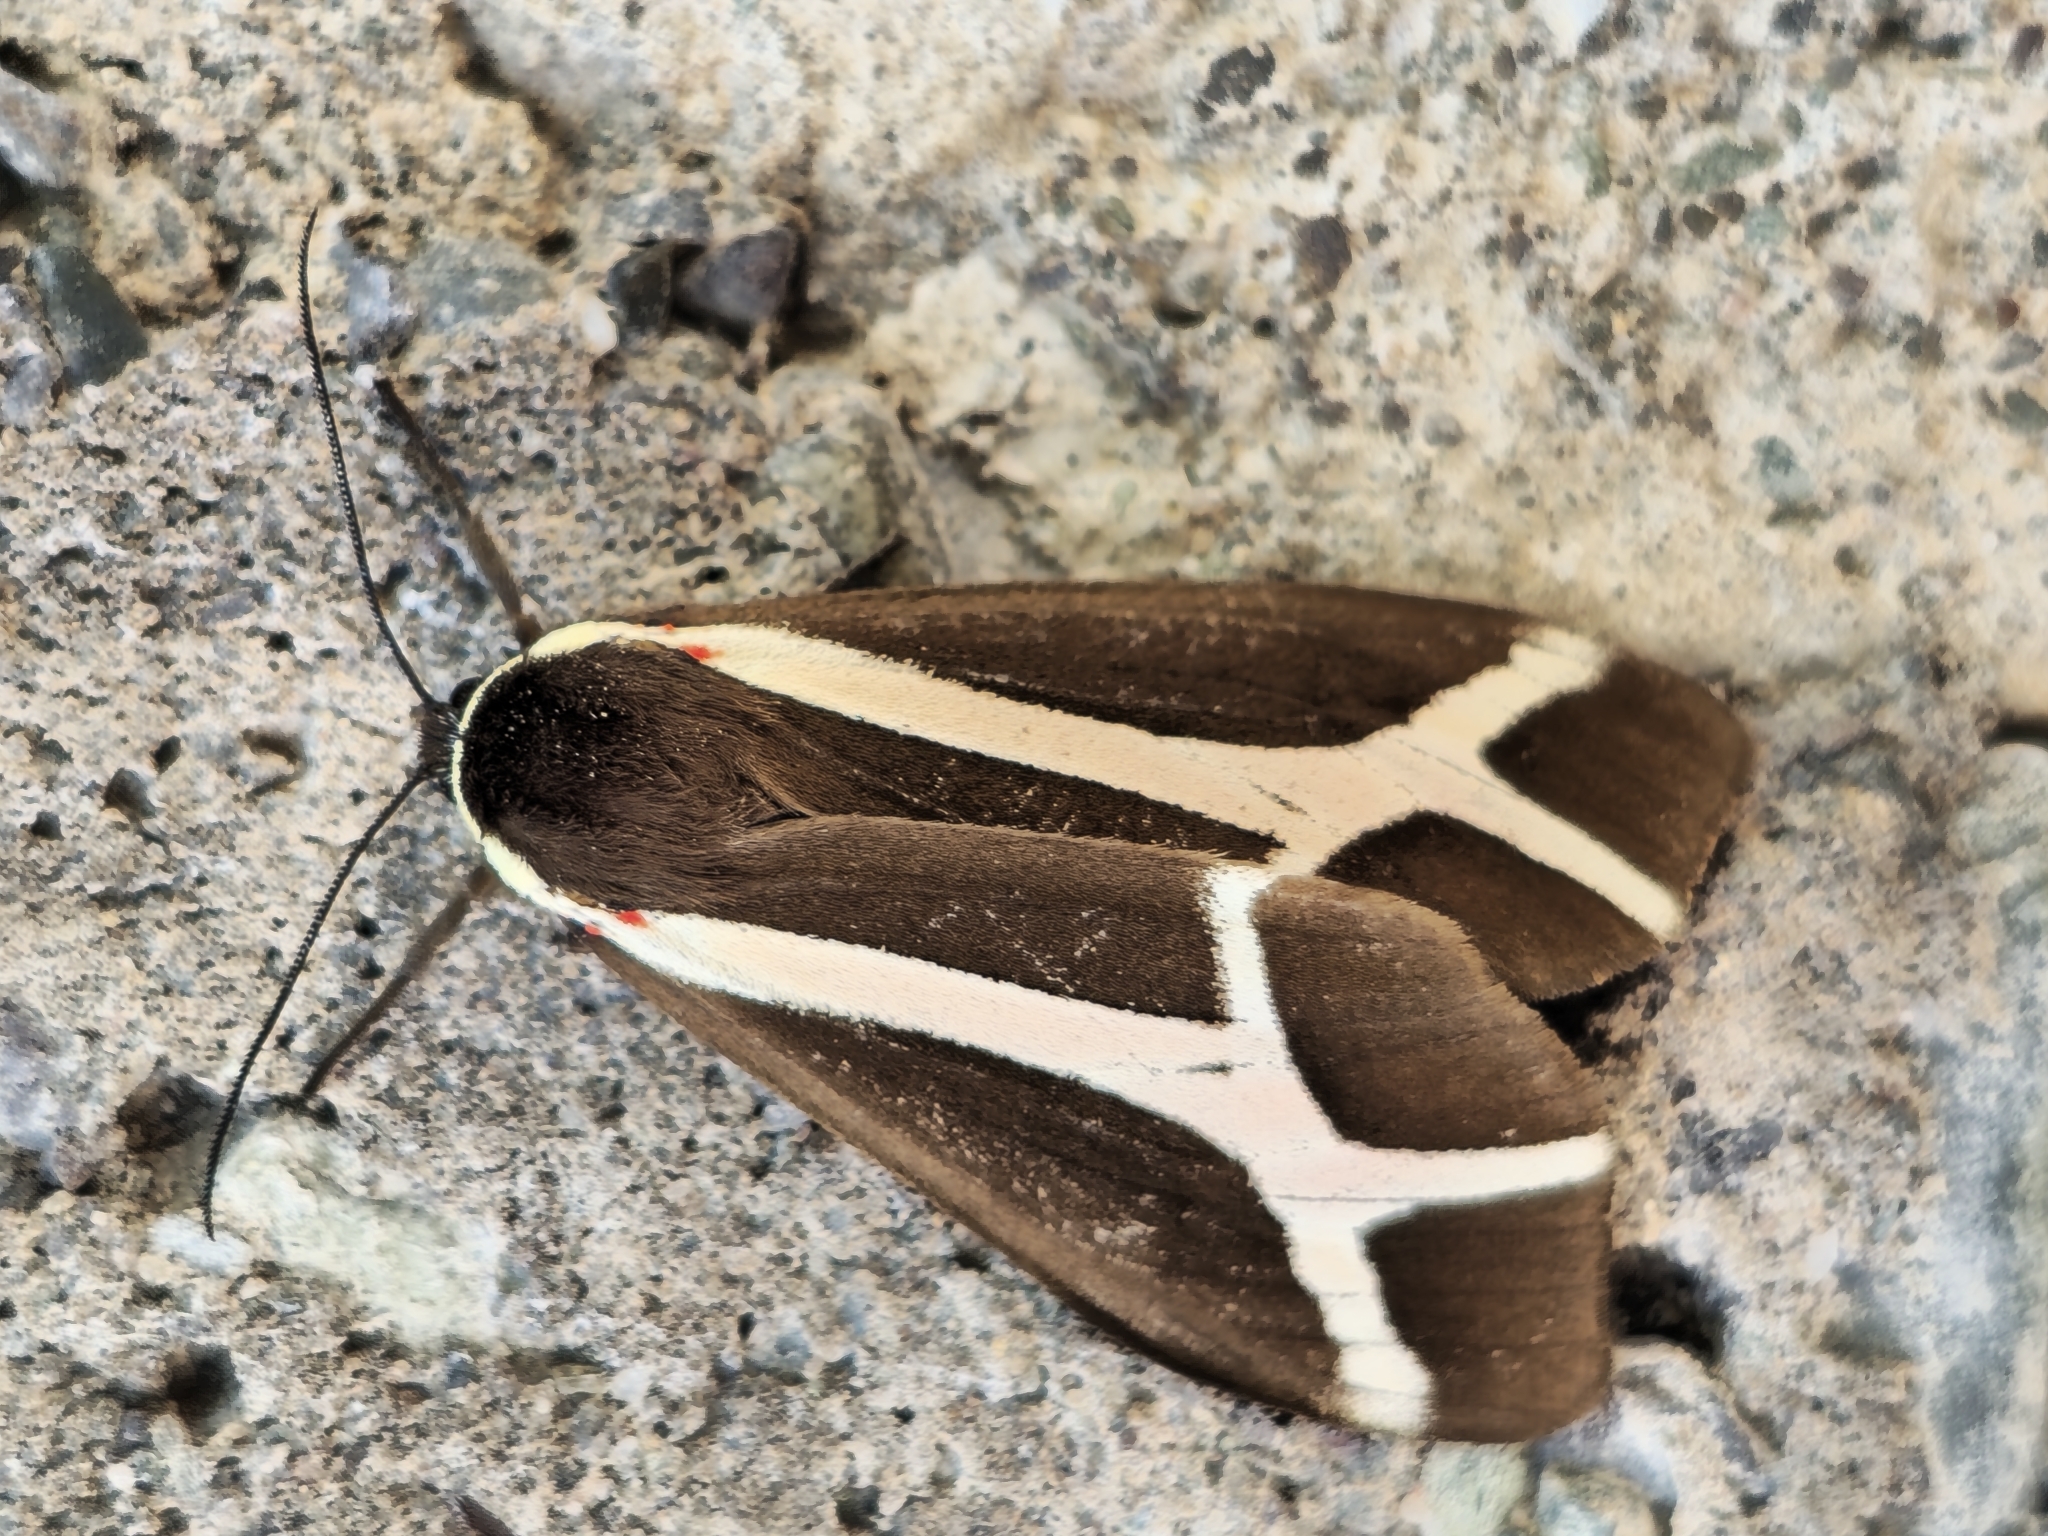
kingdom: Animalia
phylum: Arthropoda
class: Insecta
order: Lepidoptera
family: Erebidae
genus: Dysschema
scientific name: Dysschema sacrifica
